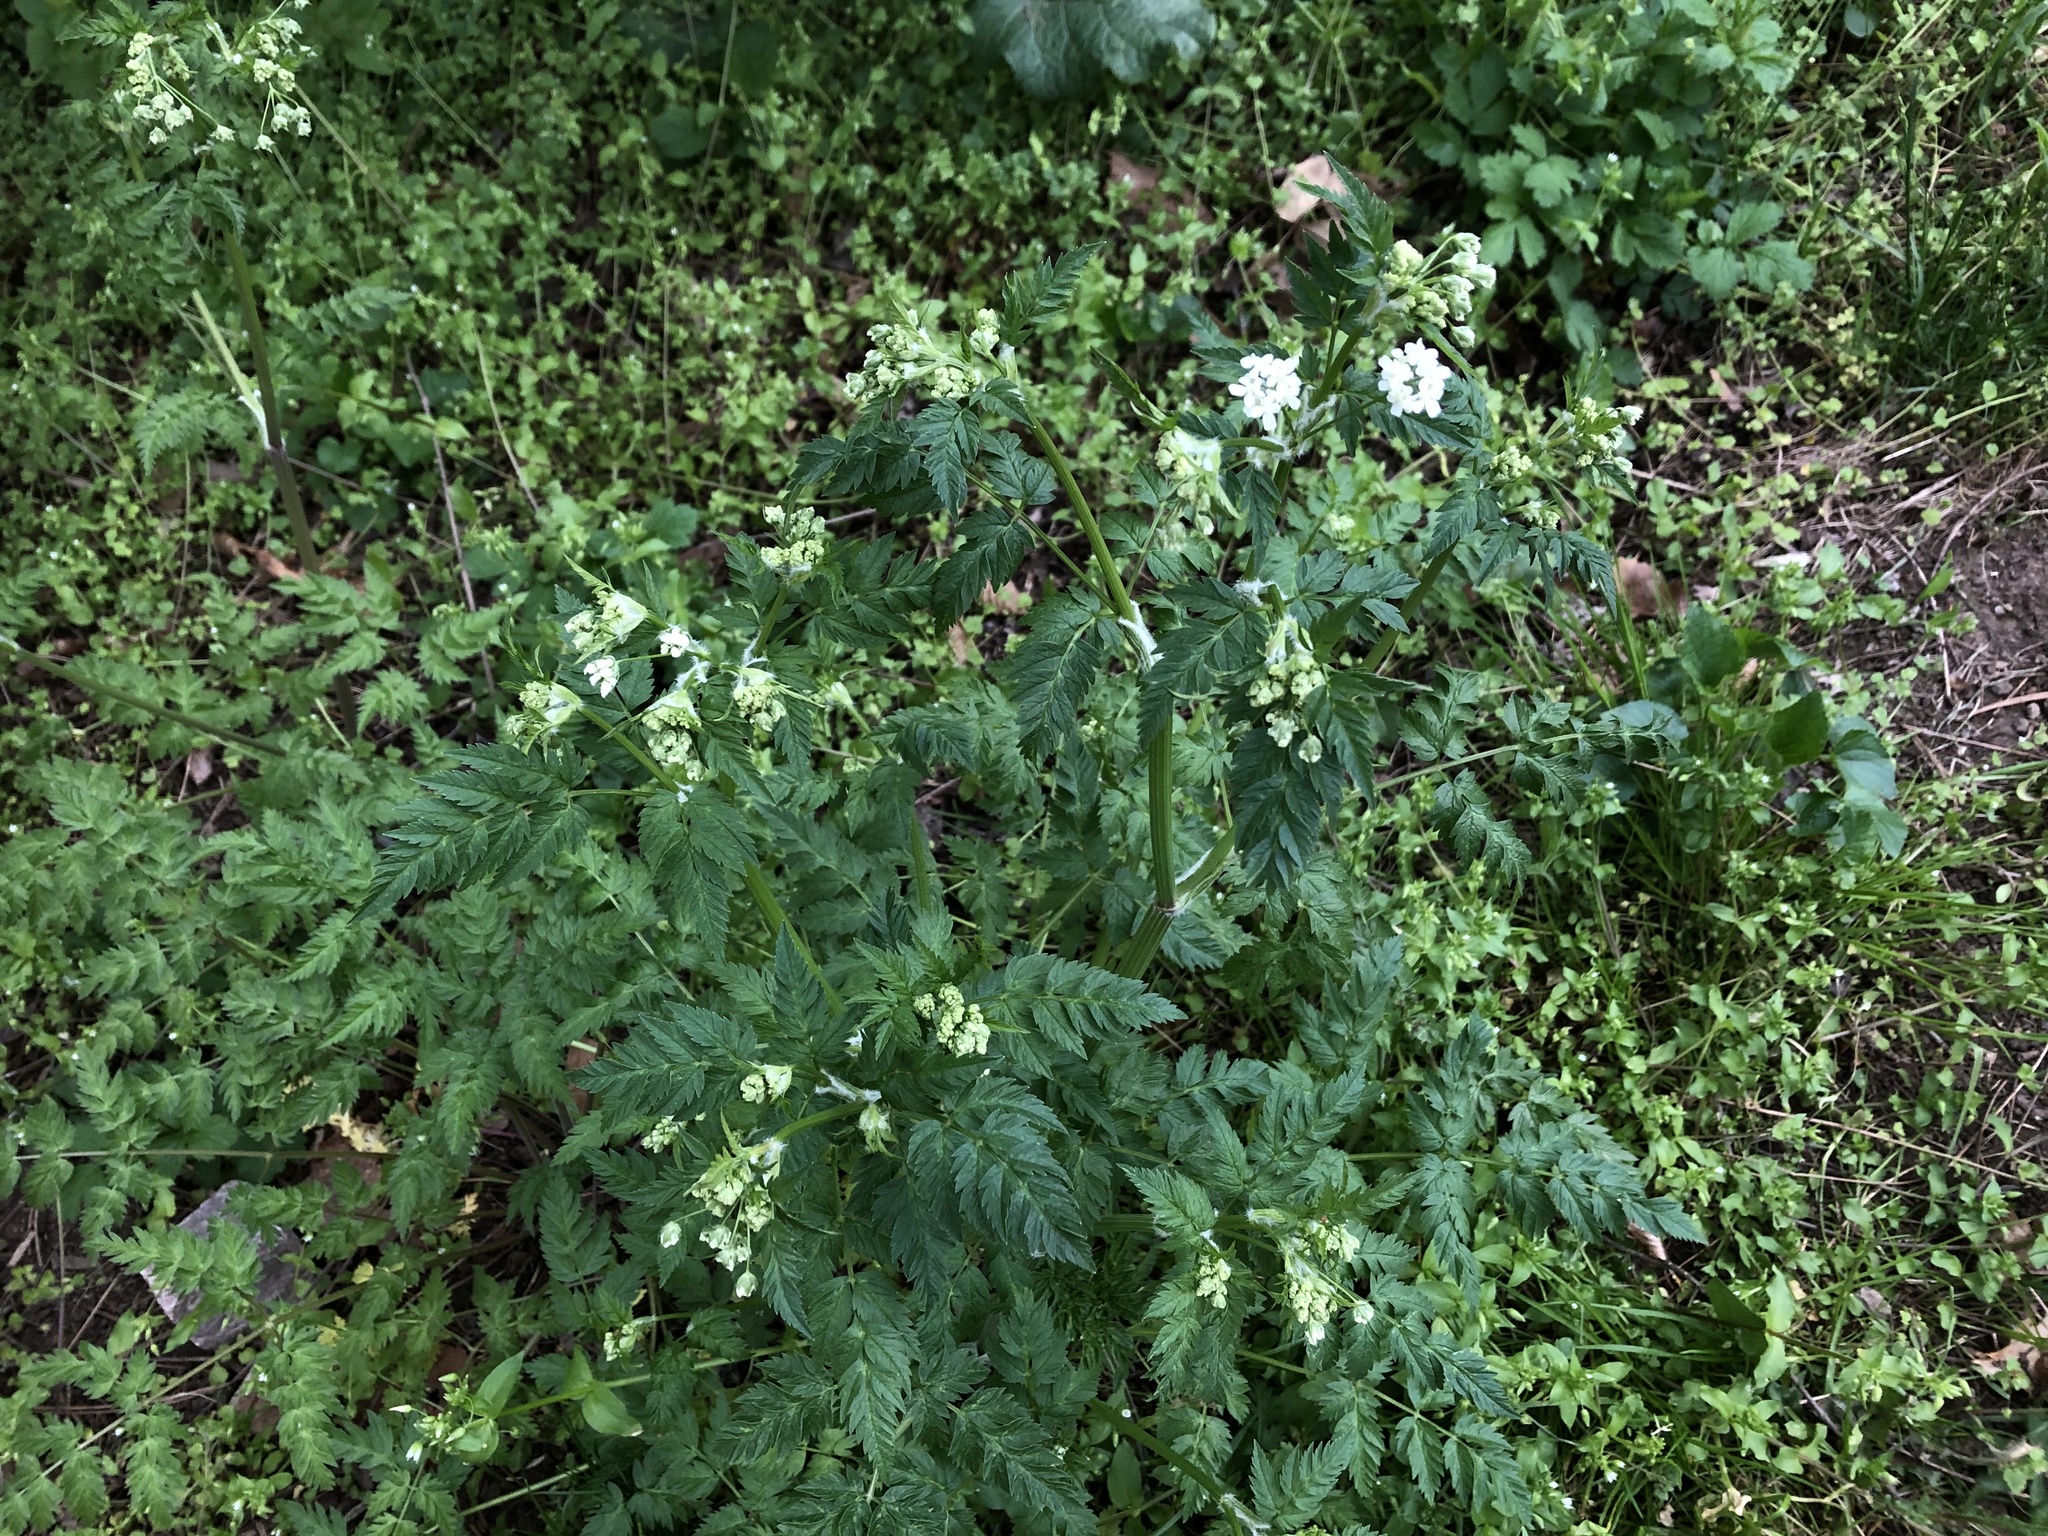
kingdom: Plantae
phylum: Tracheophyta
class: Magnoliopsida
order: Apiales
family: Apiaceae
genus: Anthriscus
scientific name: Anthriscus sylvestris
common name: Cow parsley
